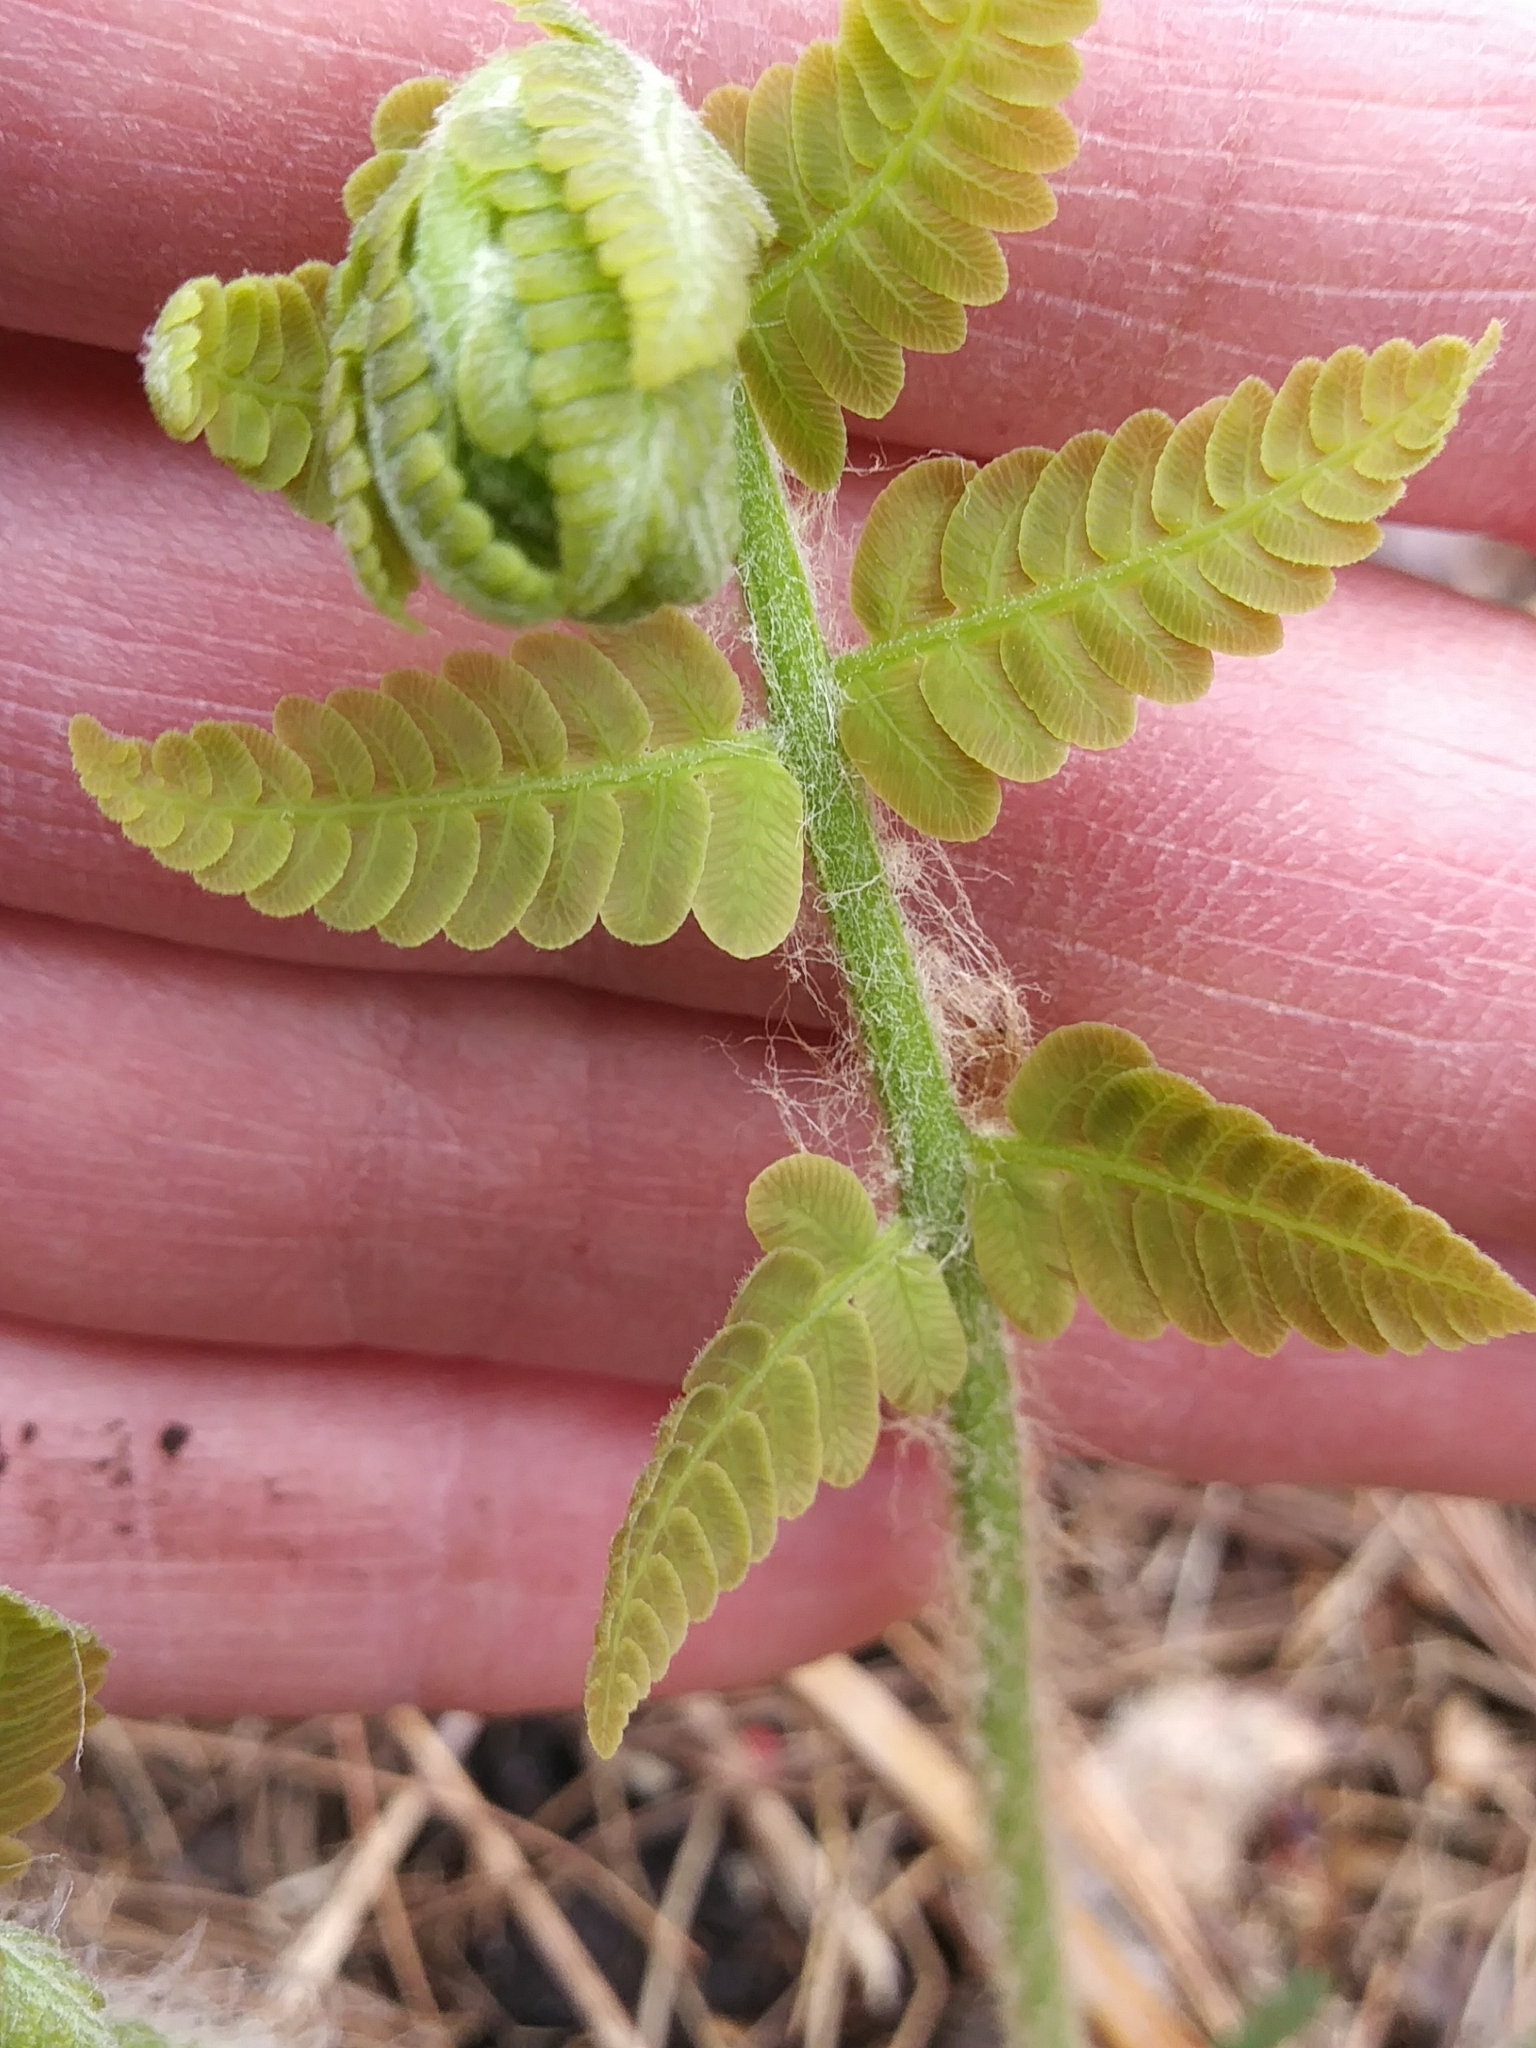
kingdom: Plantae
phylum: Tracheophyta
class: Polypodiopsida
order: Osmundales
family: Osmundaceae
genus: Claytosmunda
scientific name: Claytosmunda claytoniana
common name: Clayton's fern
